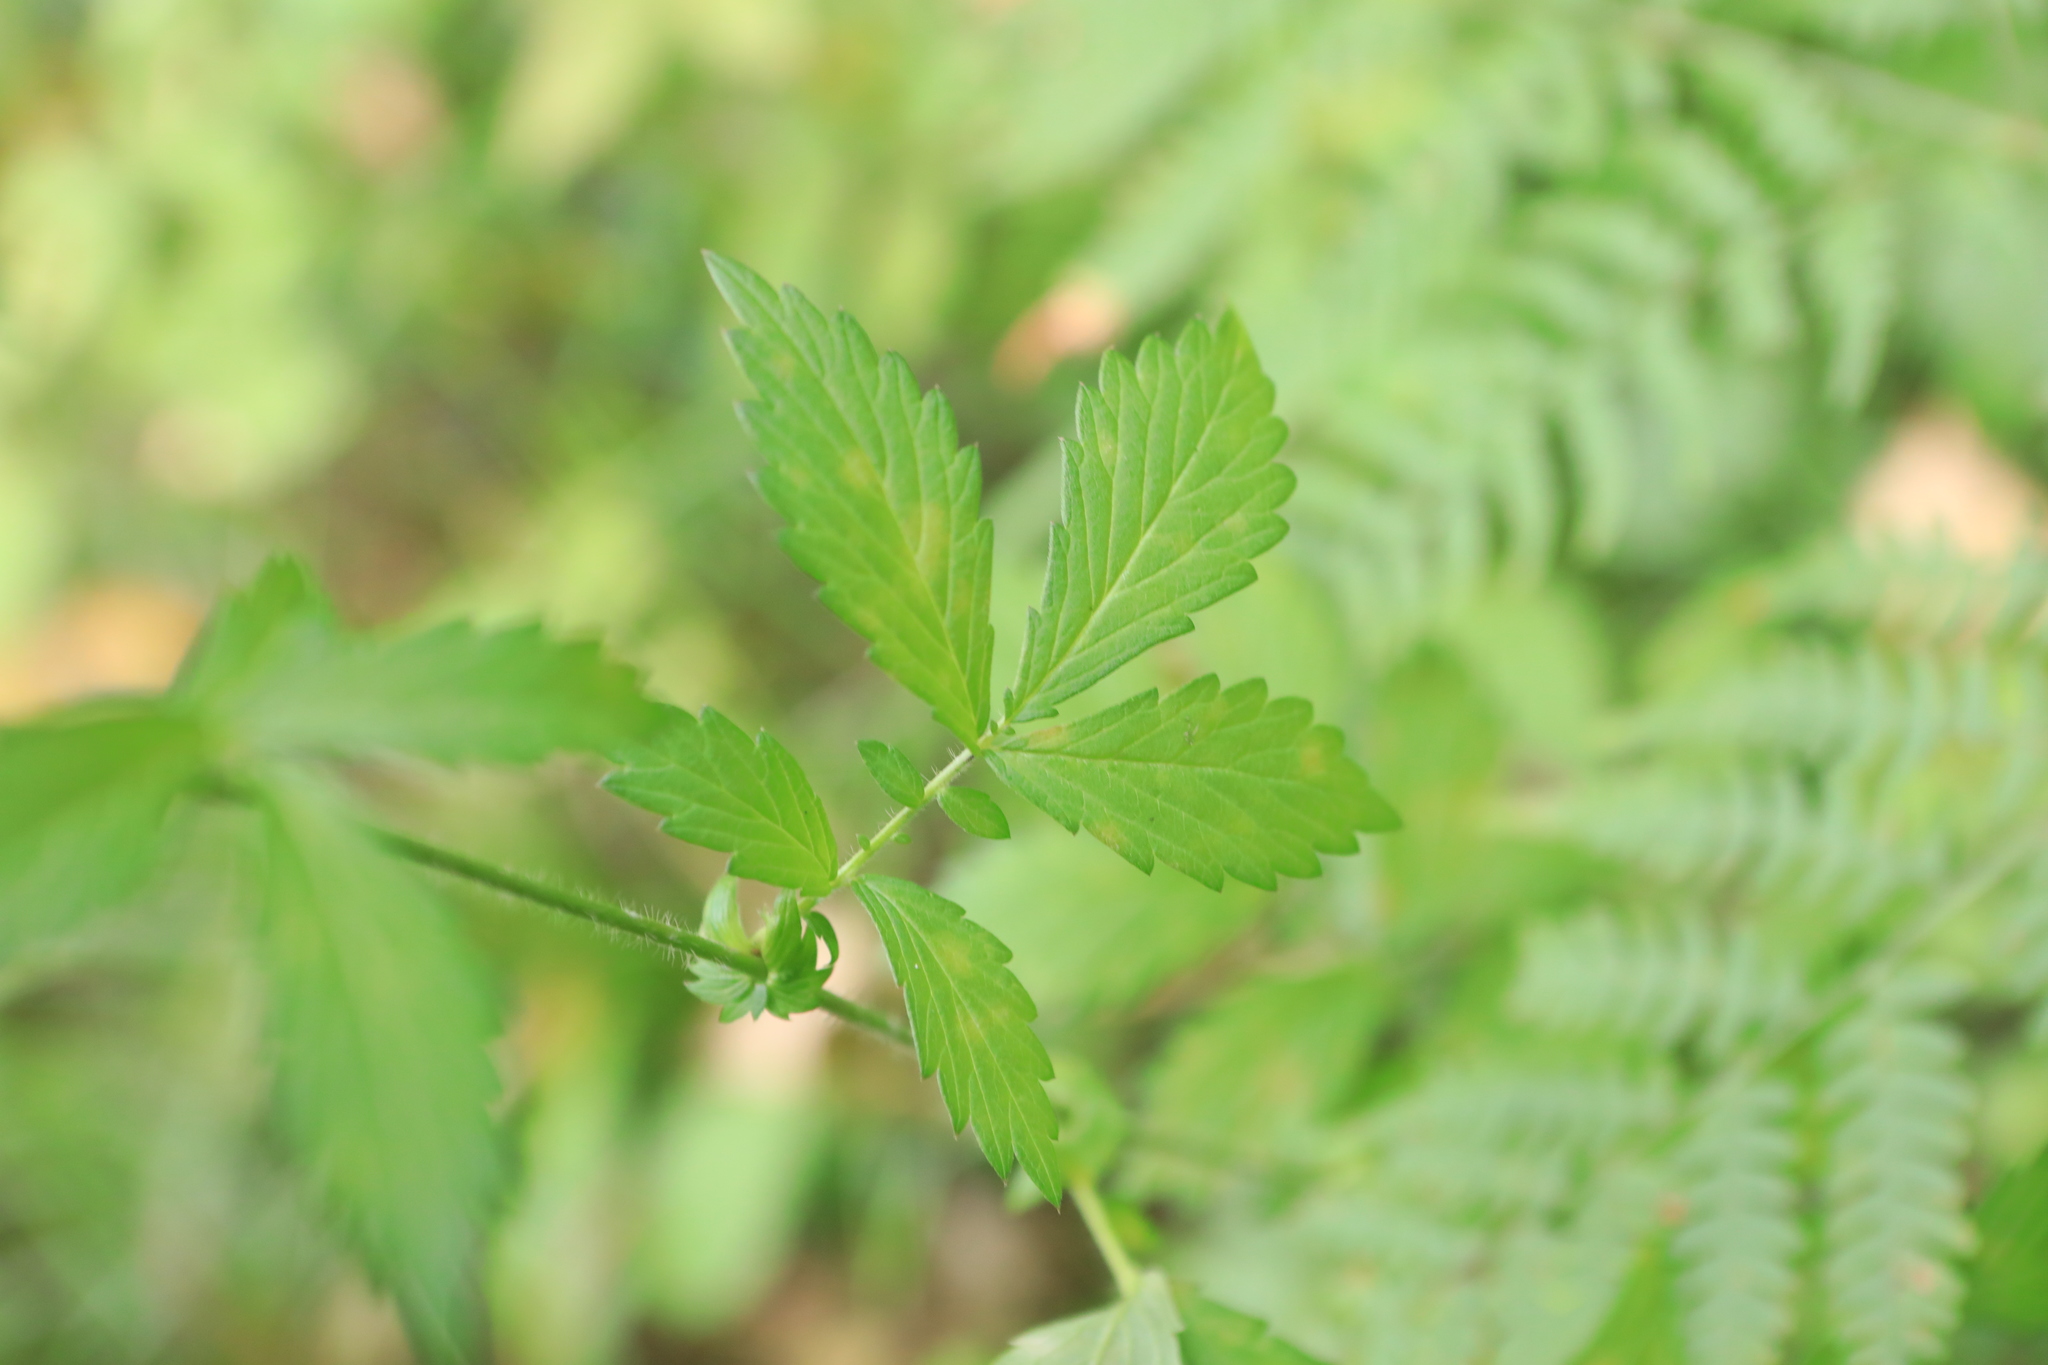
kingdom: Plantae
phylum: Tracheophyta
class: Magnoliopsida
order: Rosales
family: Rosaceae
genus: Agrimonia
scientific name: Agrimonia pilosa
